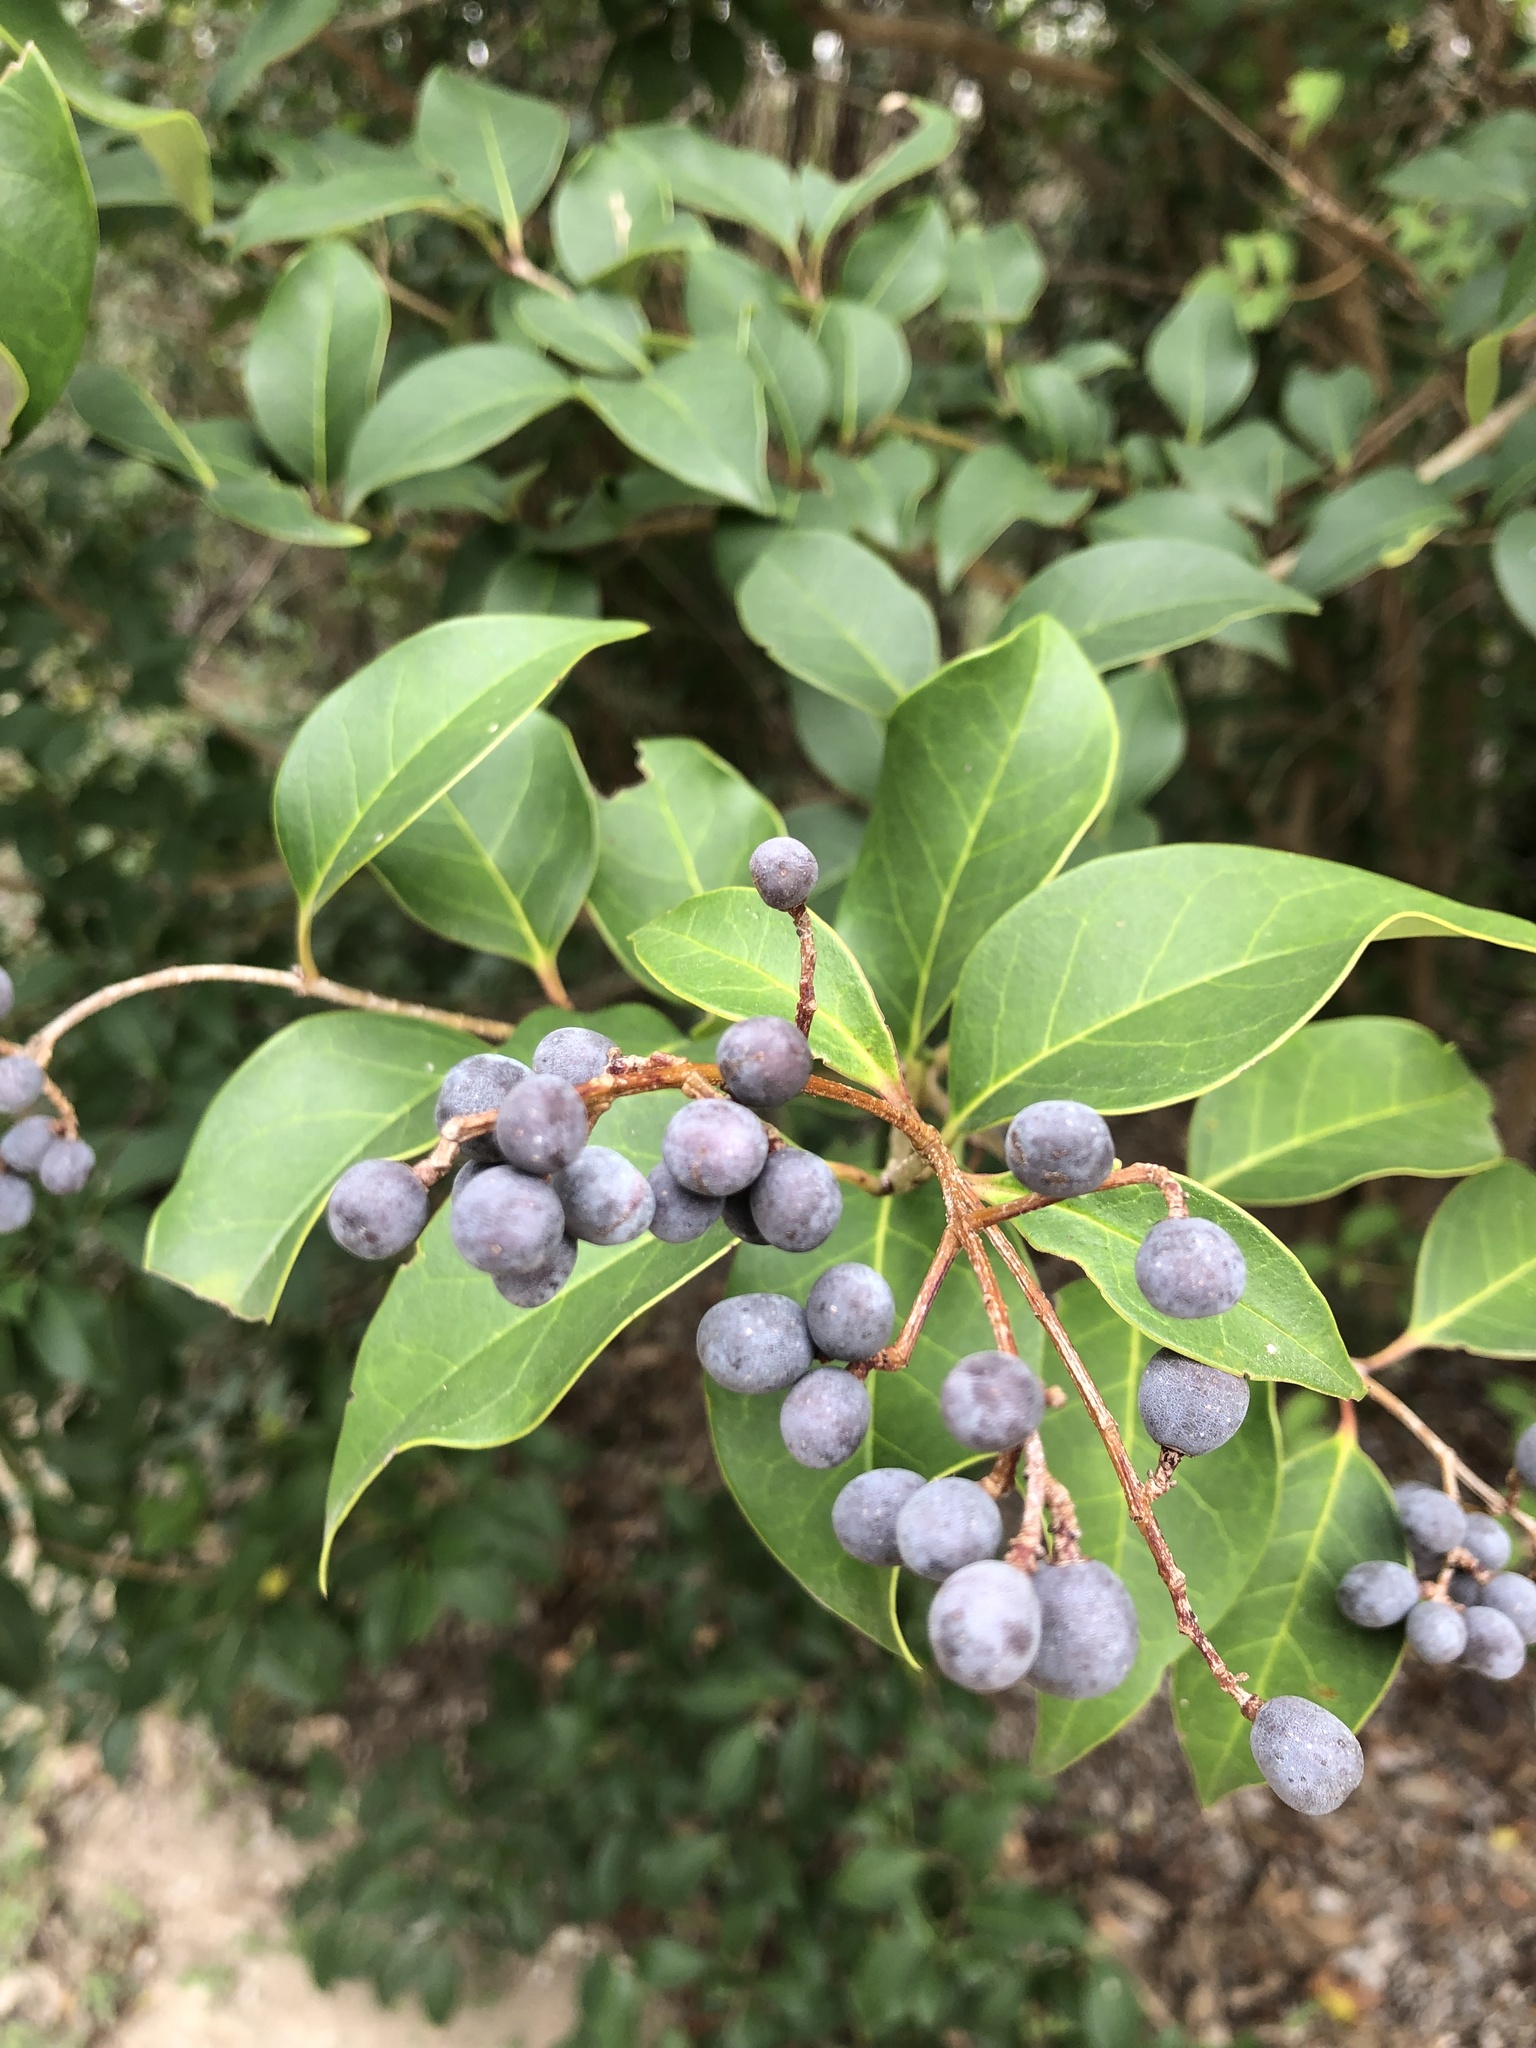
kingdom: Plantae
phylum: Tracheophyta
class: Magnoliopsida
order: Lamiales
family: Oleaceae
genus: Ligustrum
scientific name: Ligustrum lucidum
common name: Glossy privet
